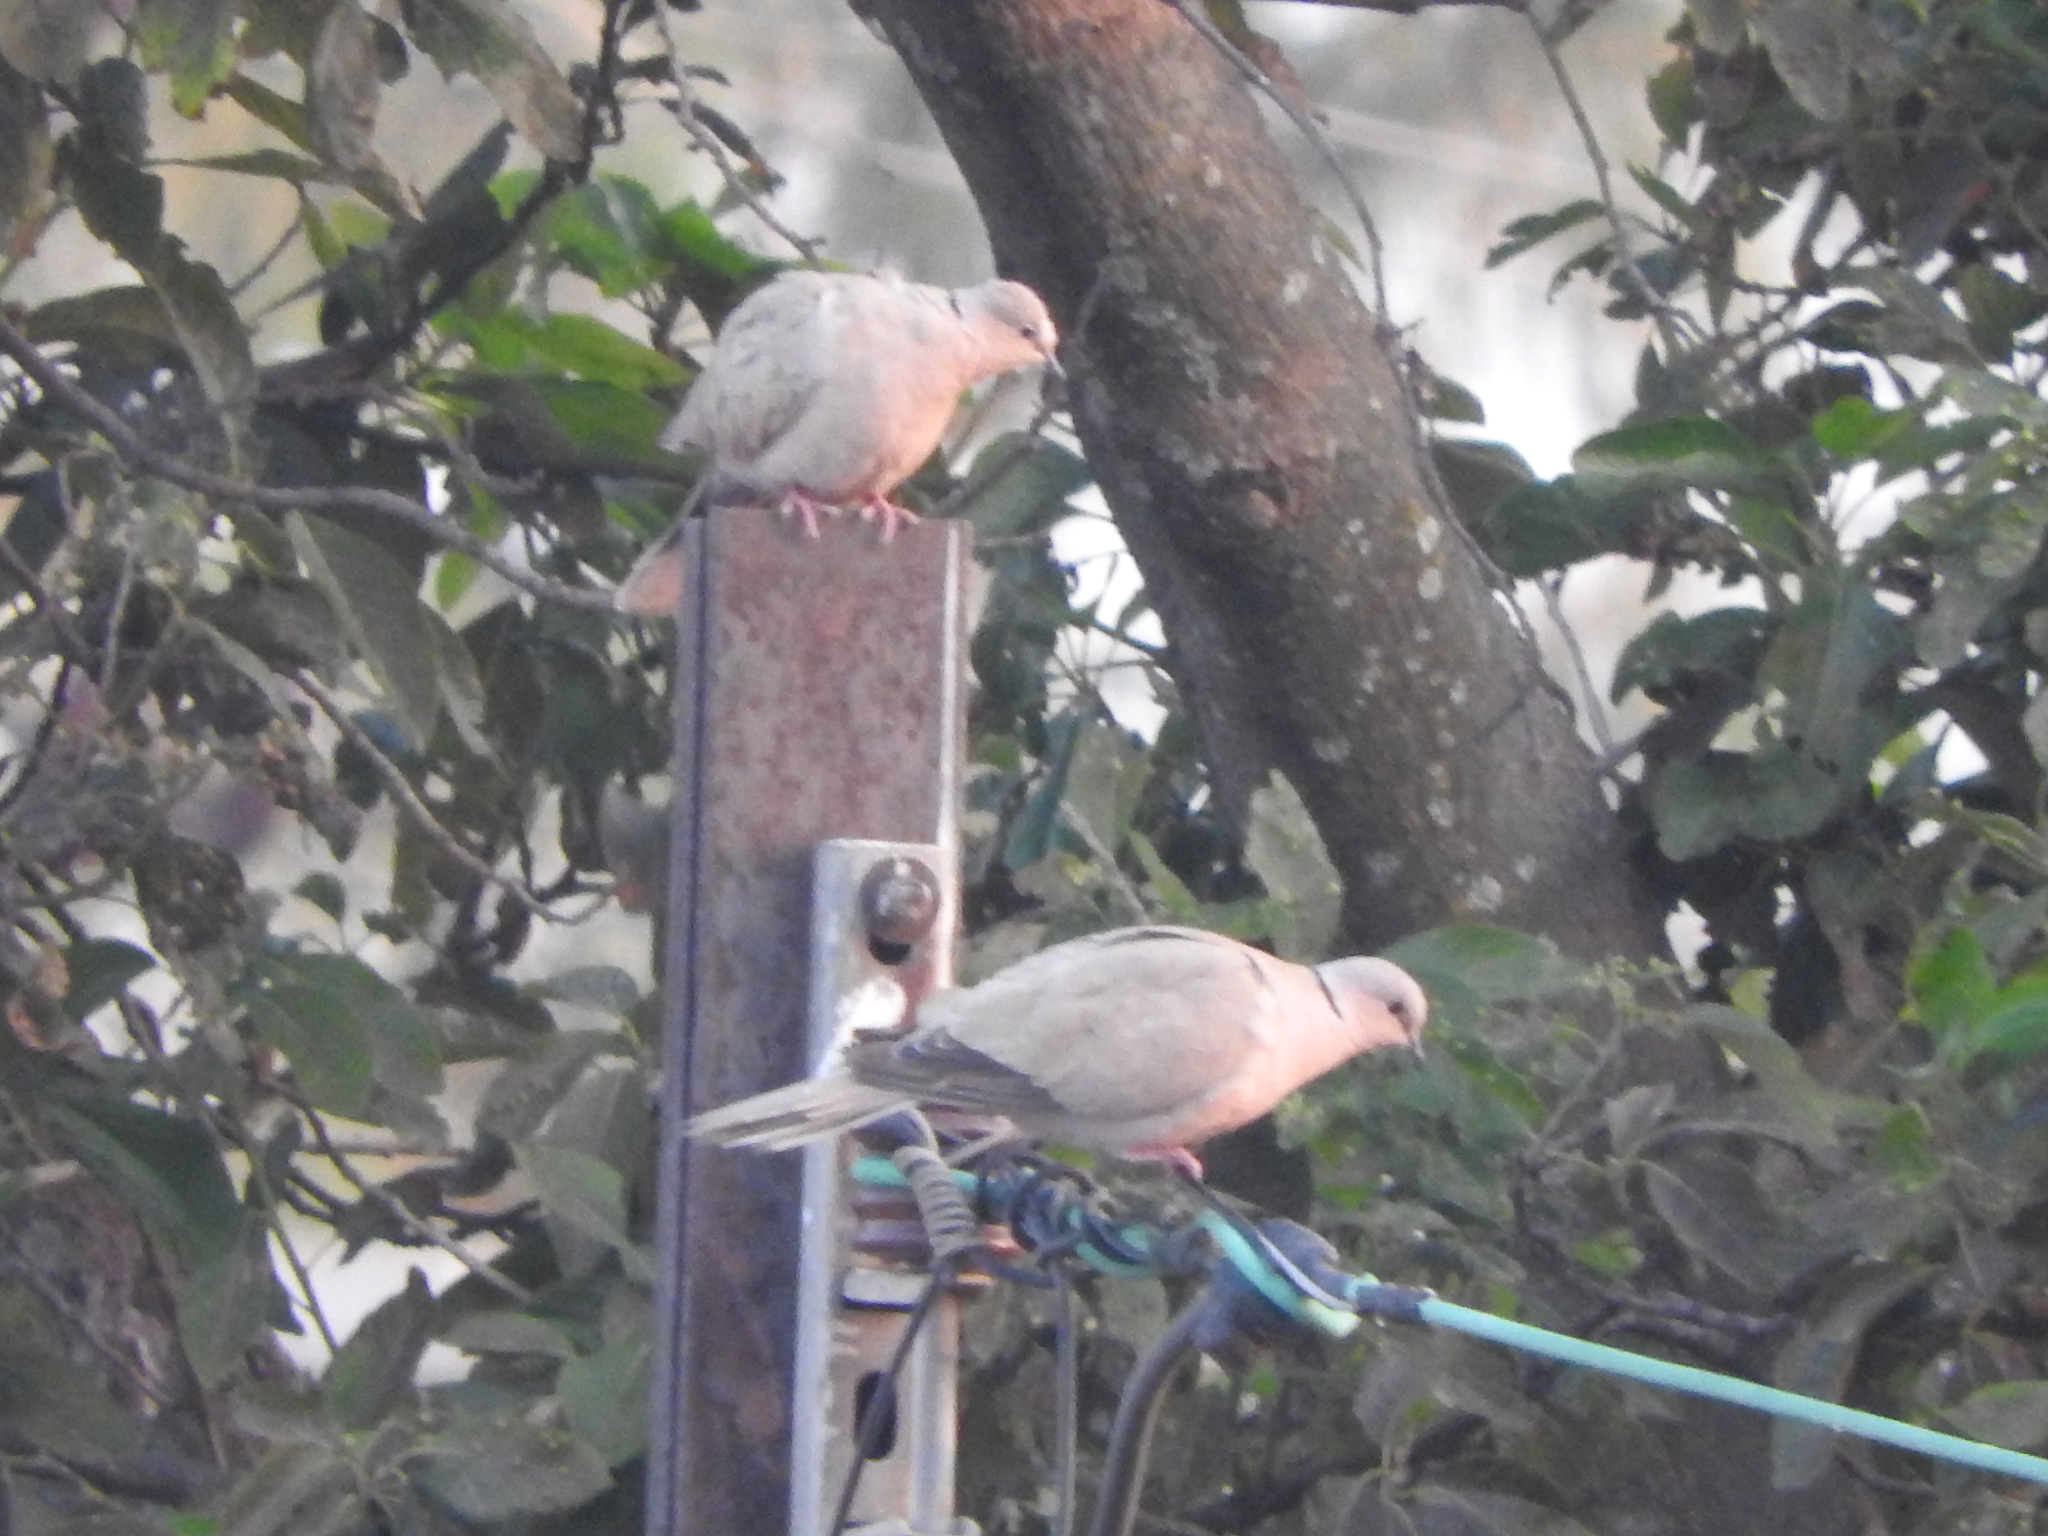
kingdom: Animalia
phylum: Chordata
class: Aves
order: Columbiformes
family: Columbidae
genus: Streptopelia
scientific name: Streptopelia decaocto
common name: Eurasian collared dove
